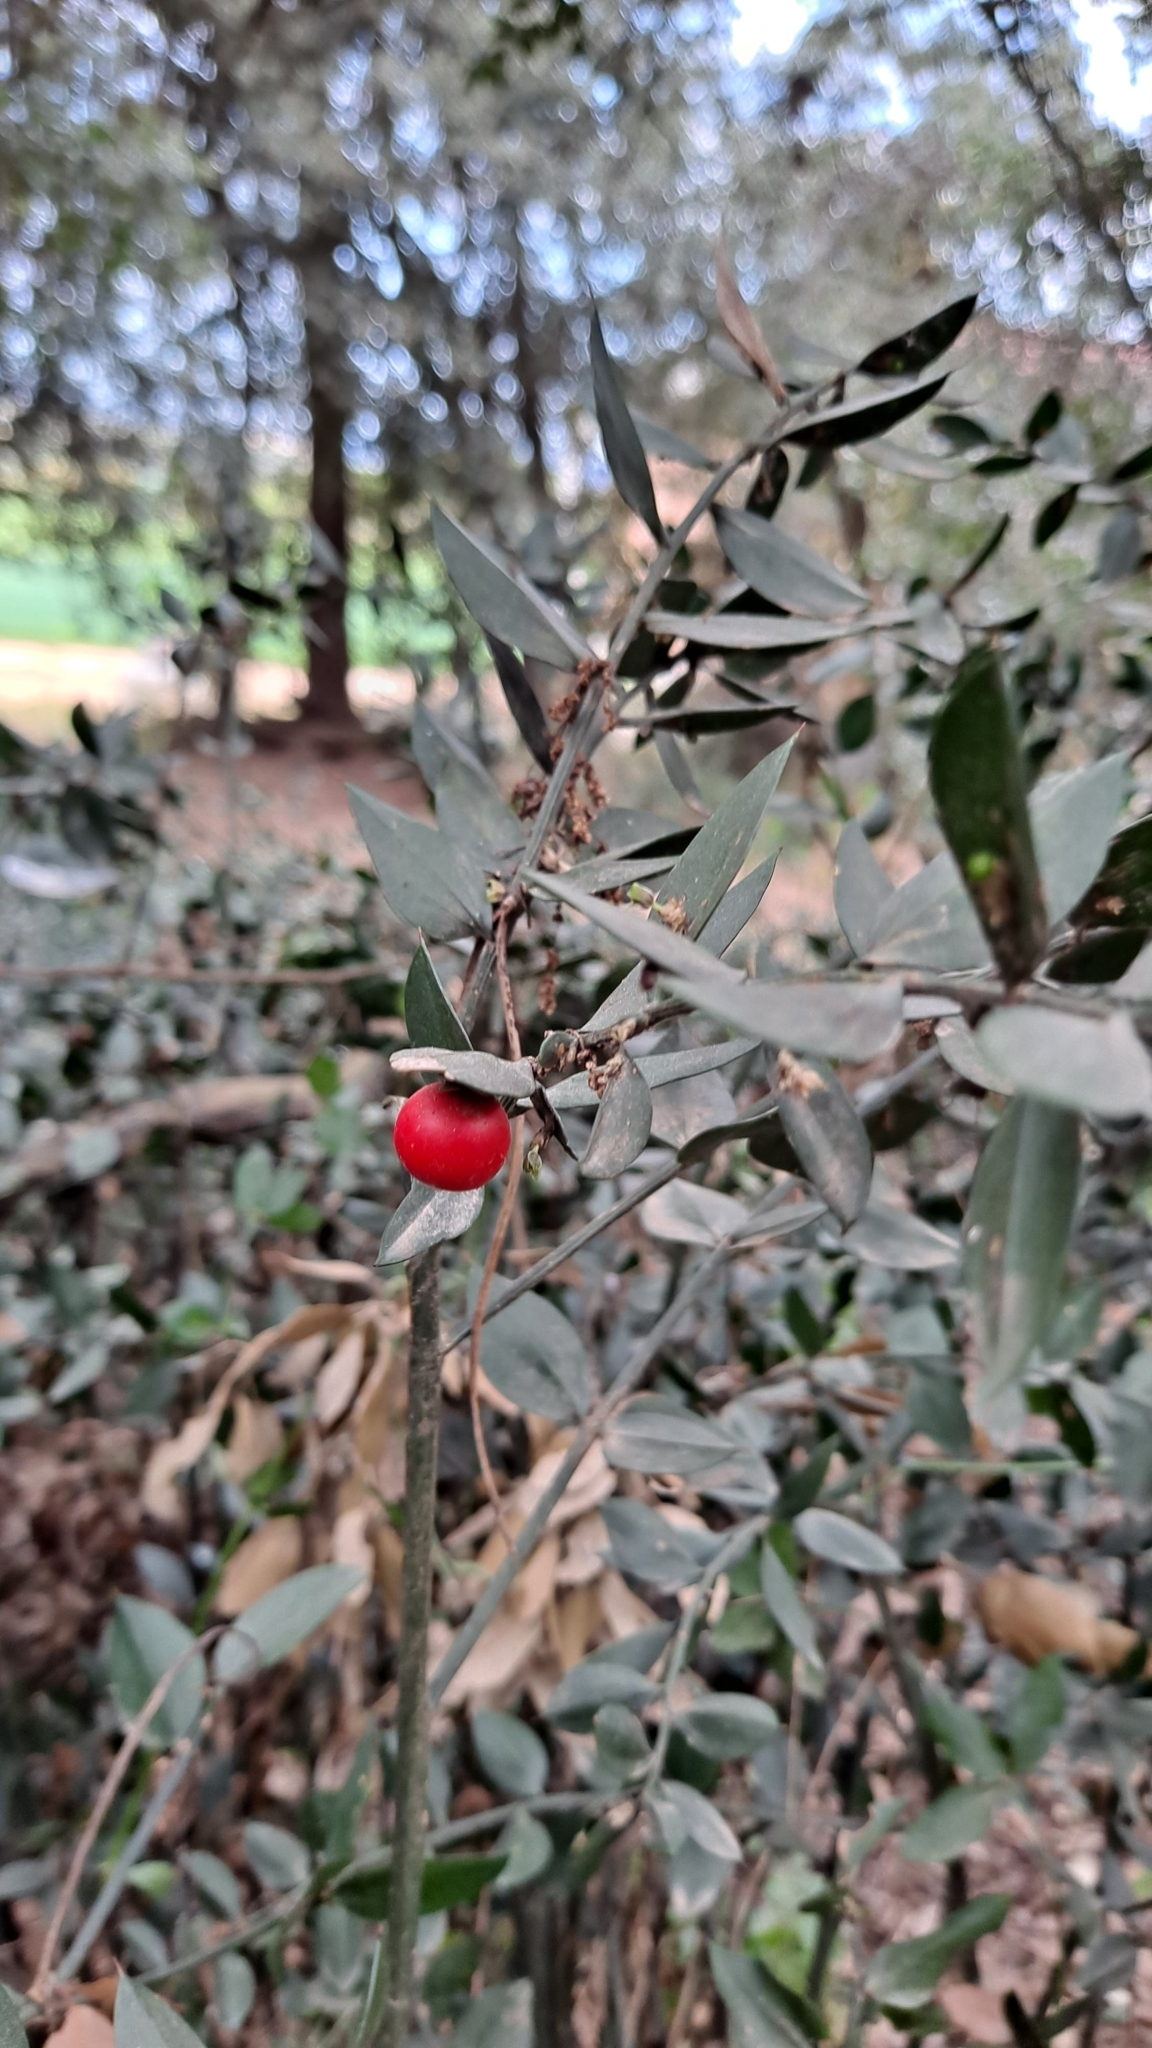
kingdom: Plantae
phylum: Tracheophyta
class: Liliopsida
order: Asparagales
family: Asparagaceae
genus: Ruscus
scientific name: Ruscus aculeatus
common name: Butcher's-broom
